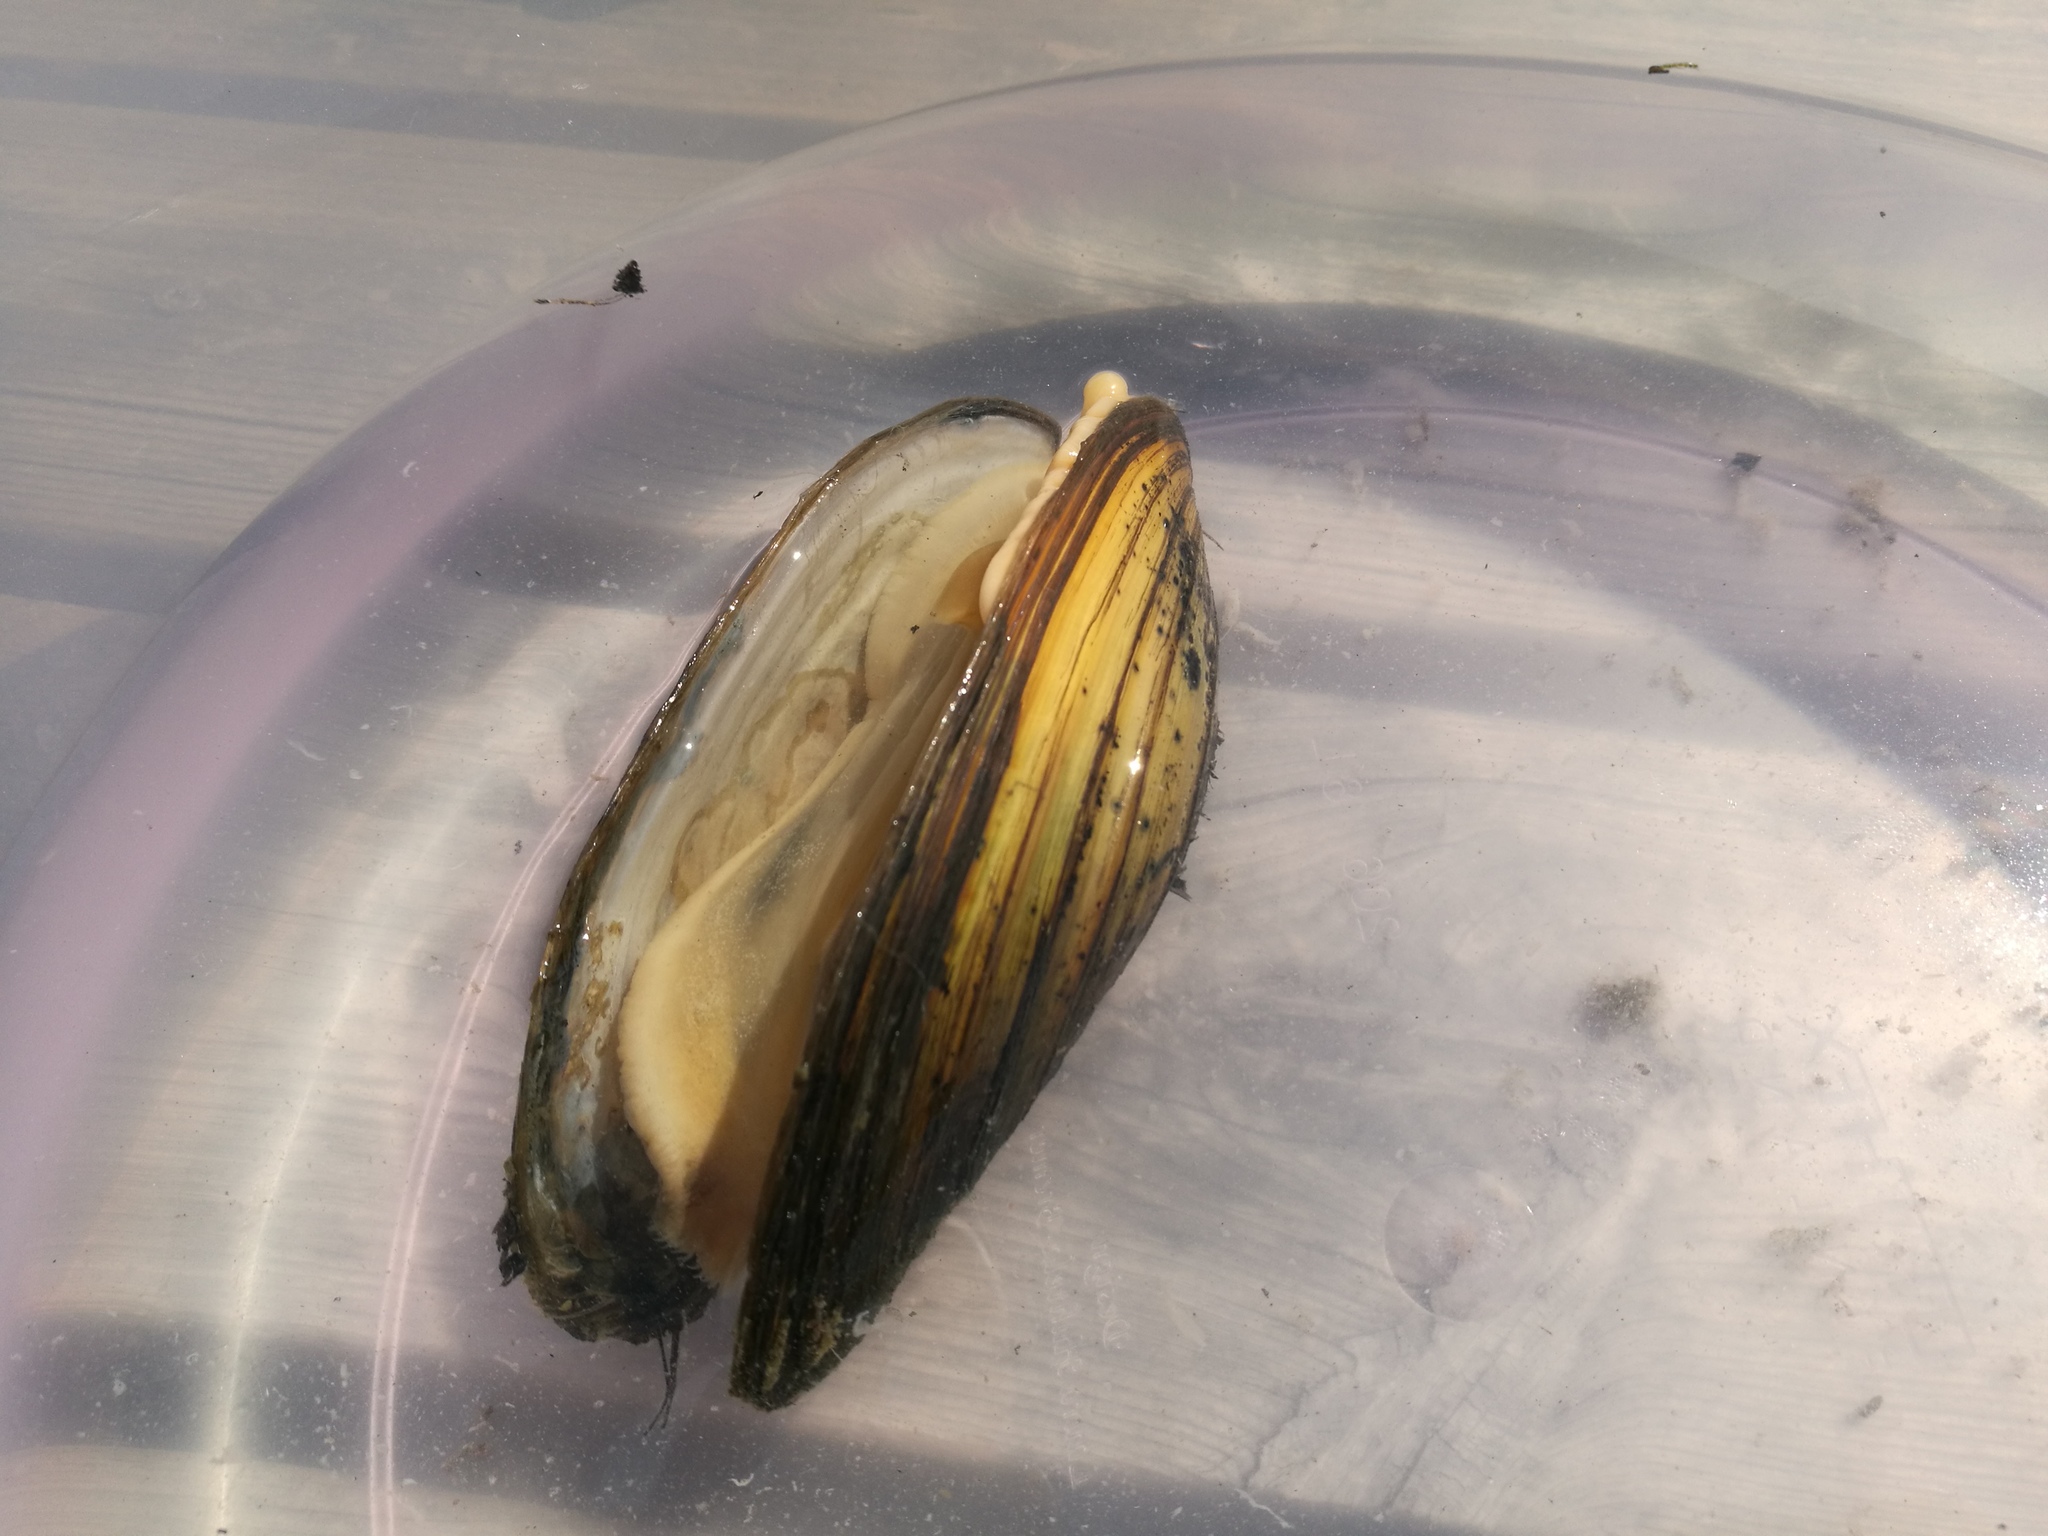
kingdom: Animalia
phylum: Mollusca
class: Bivalvia
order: Unionida
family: Unionidae
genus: Anodonta
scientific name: Anodonta anatina
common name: Duck mussel
